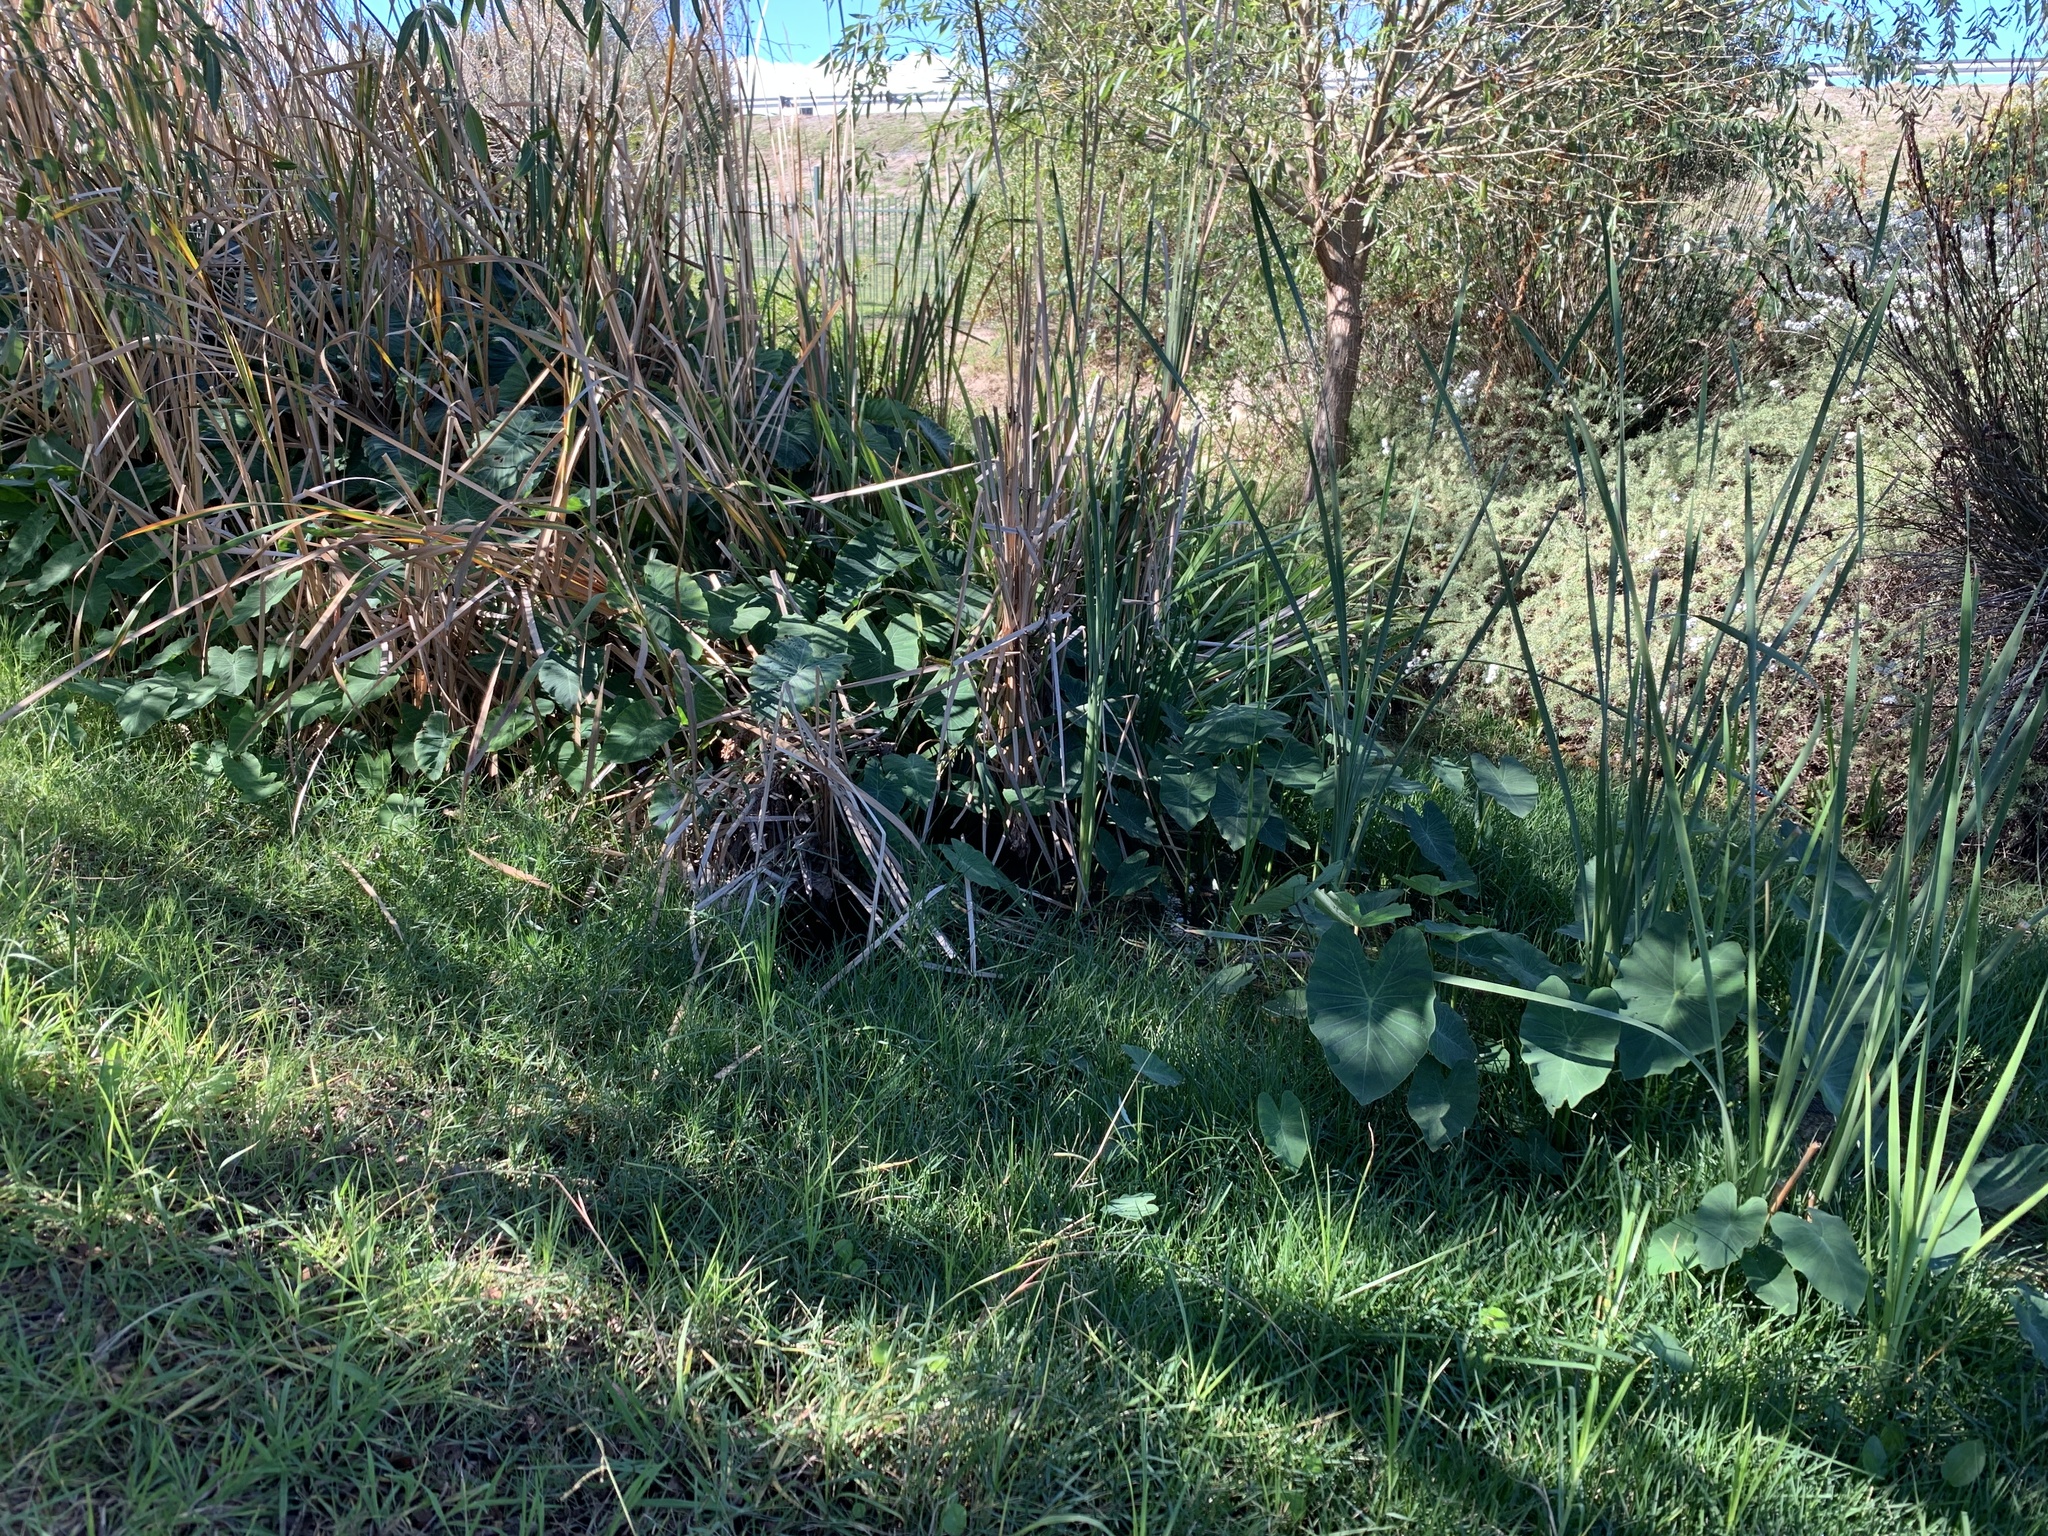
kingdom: Plantae
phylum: Tracheophyta
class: Liliopsida
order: Alismatales
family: Araceae
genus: Colocasia
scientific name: Colocasia esculenta
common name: Taro
